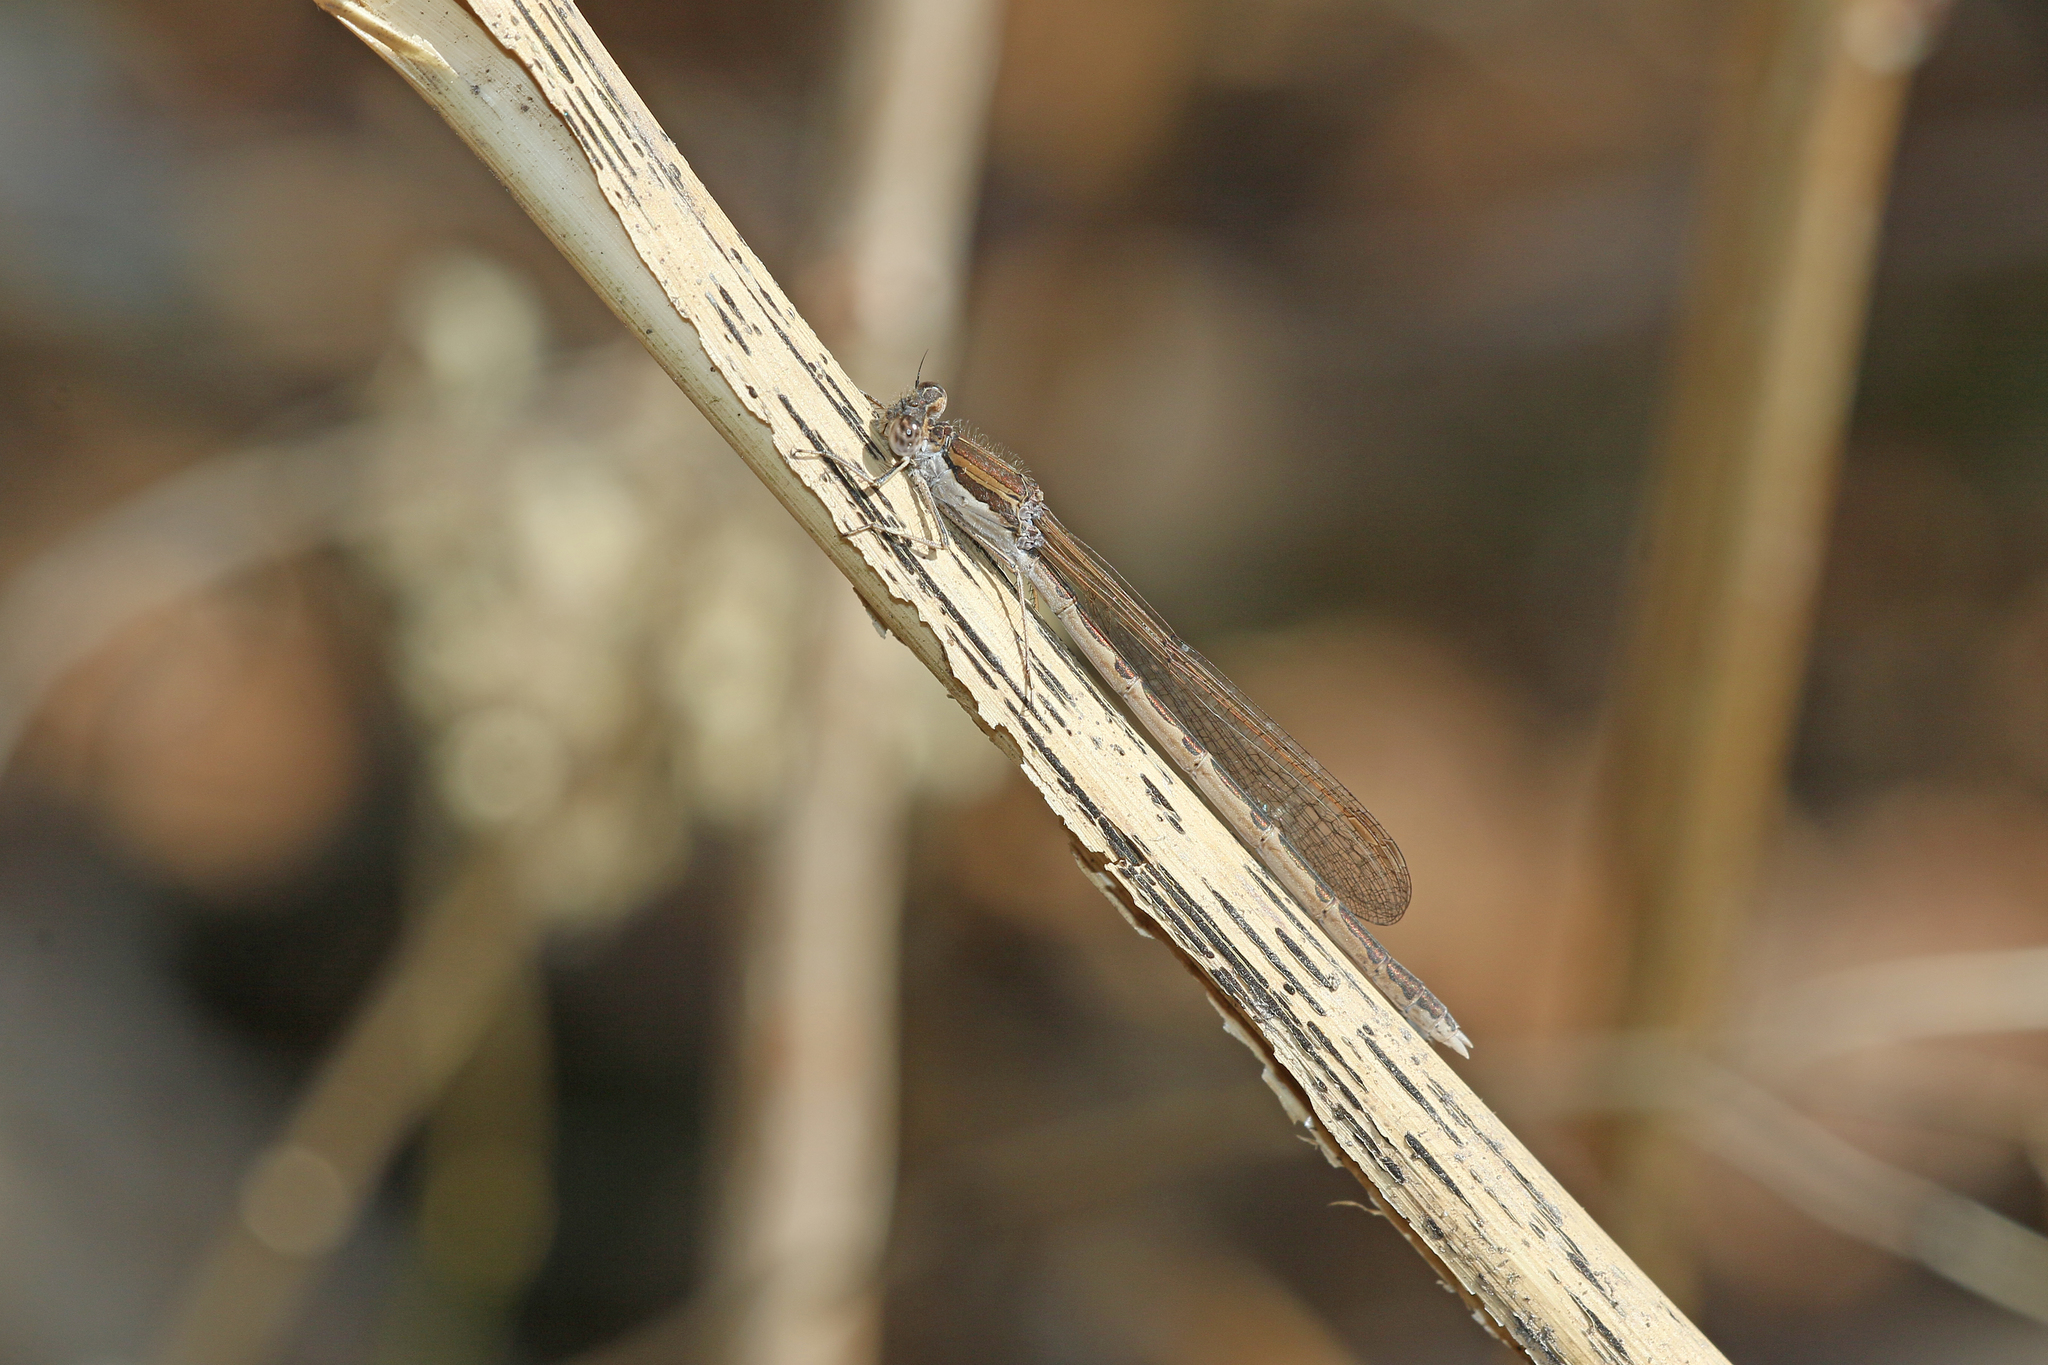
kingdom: Animalia
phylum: Arthropoda
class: Insecta
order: Odonata
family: Lestidae
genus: Sympecma
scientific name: Sympecma fusca
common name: Common winter damsel
